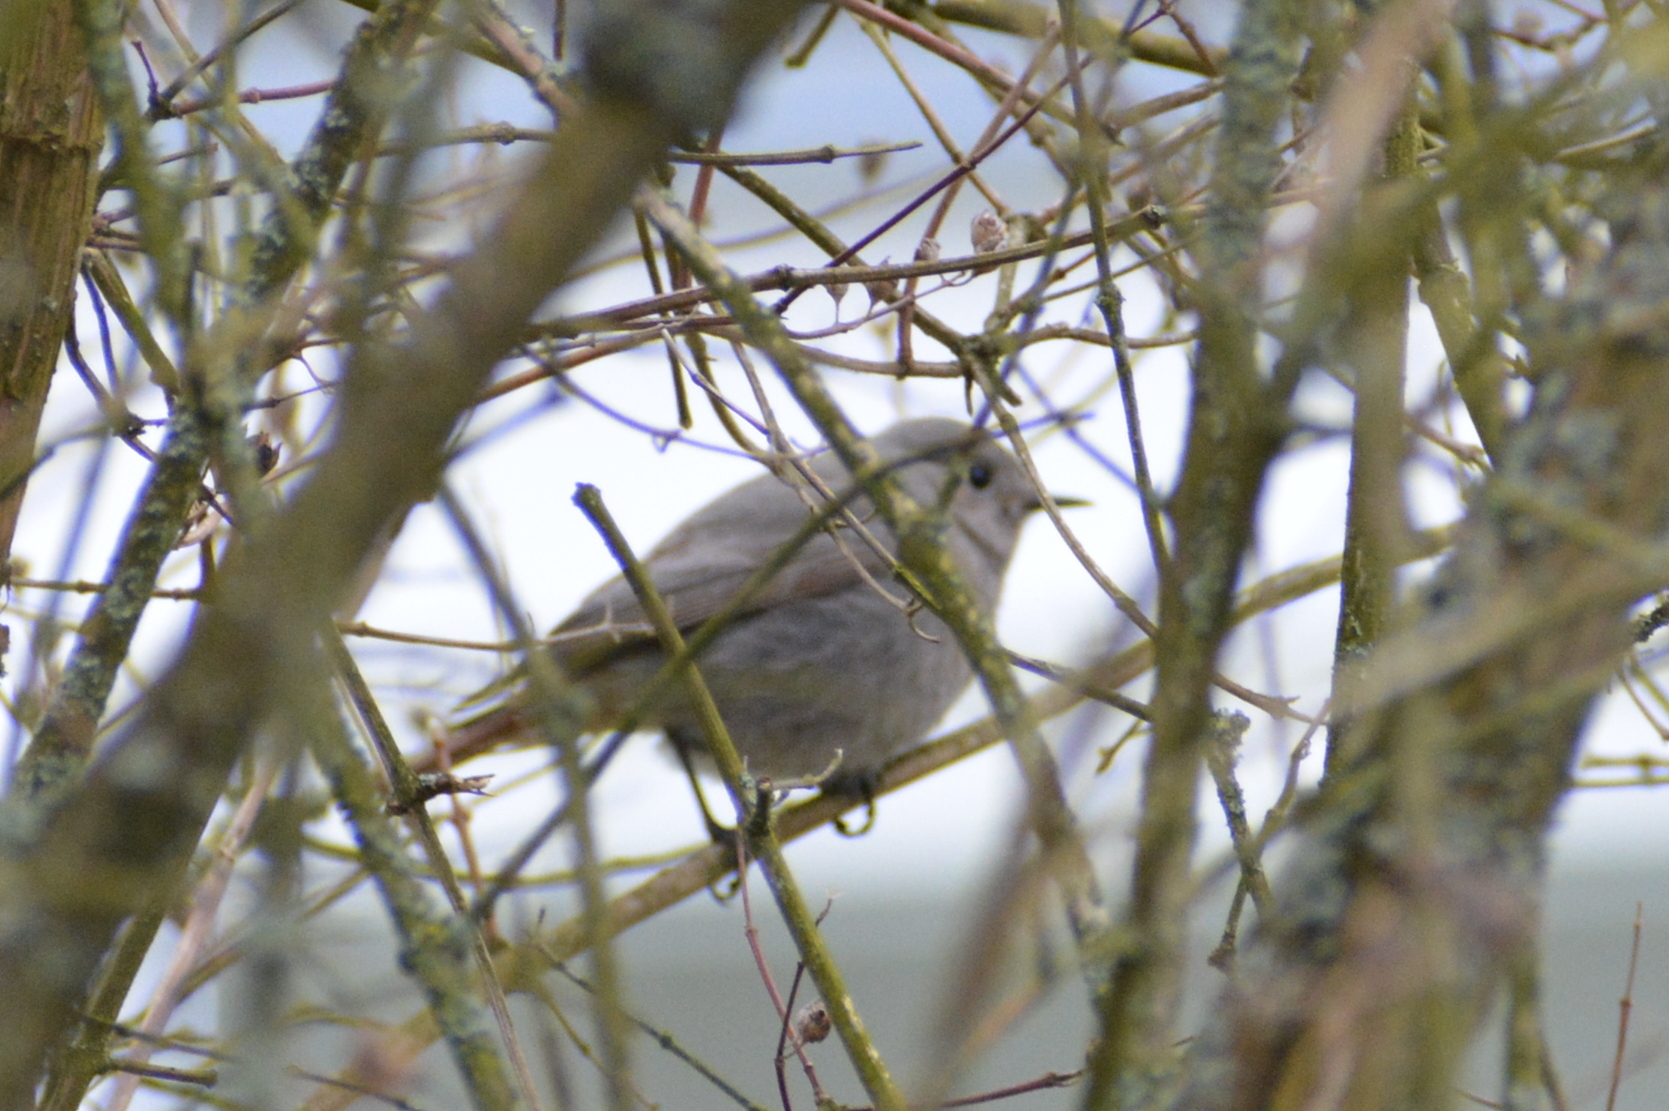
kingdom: Animalia
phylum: Chordata
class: Aves
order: Passeriformes
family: Muscicapidae
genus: Phoenicurus
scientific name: Phoenicurus ochruros
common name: Black redstart
